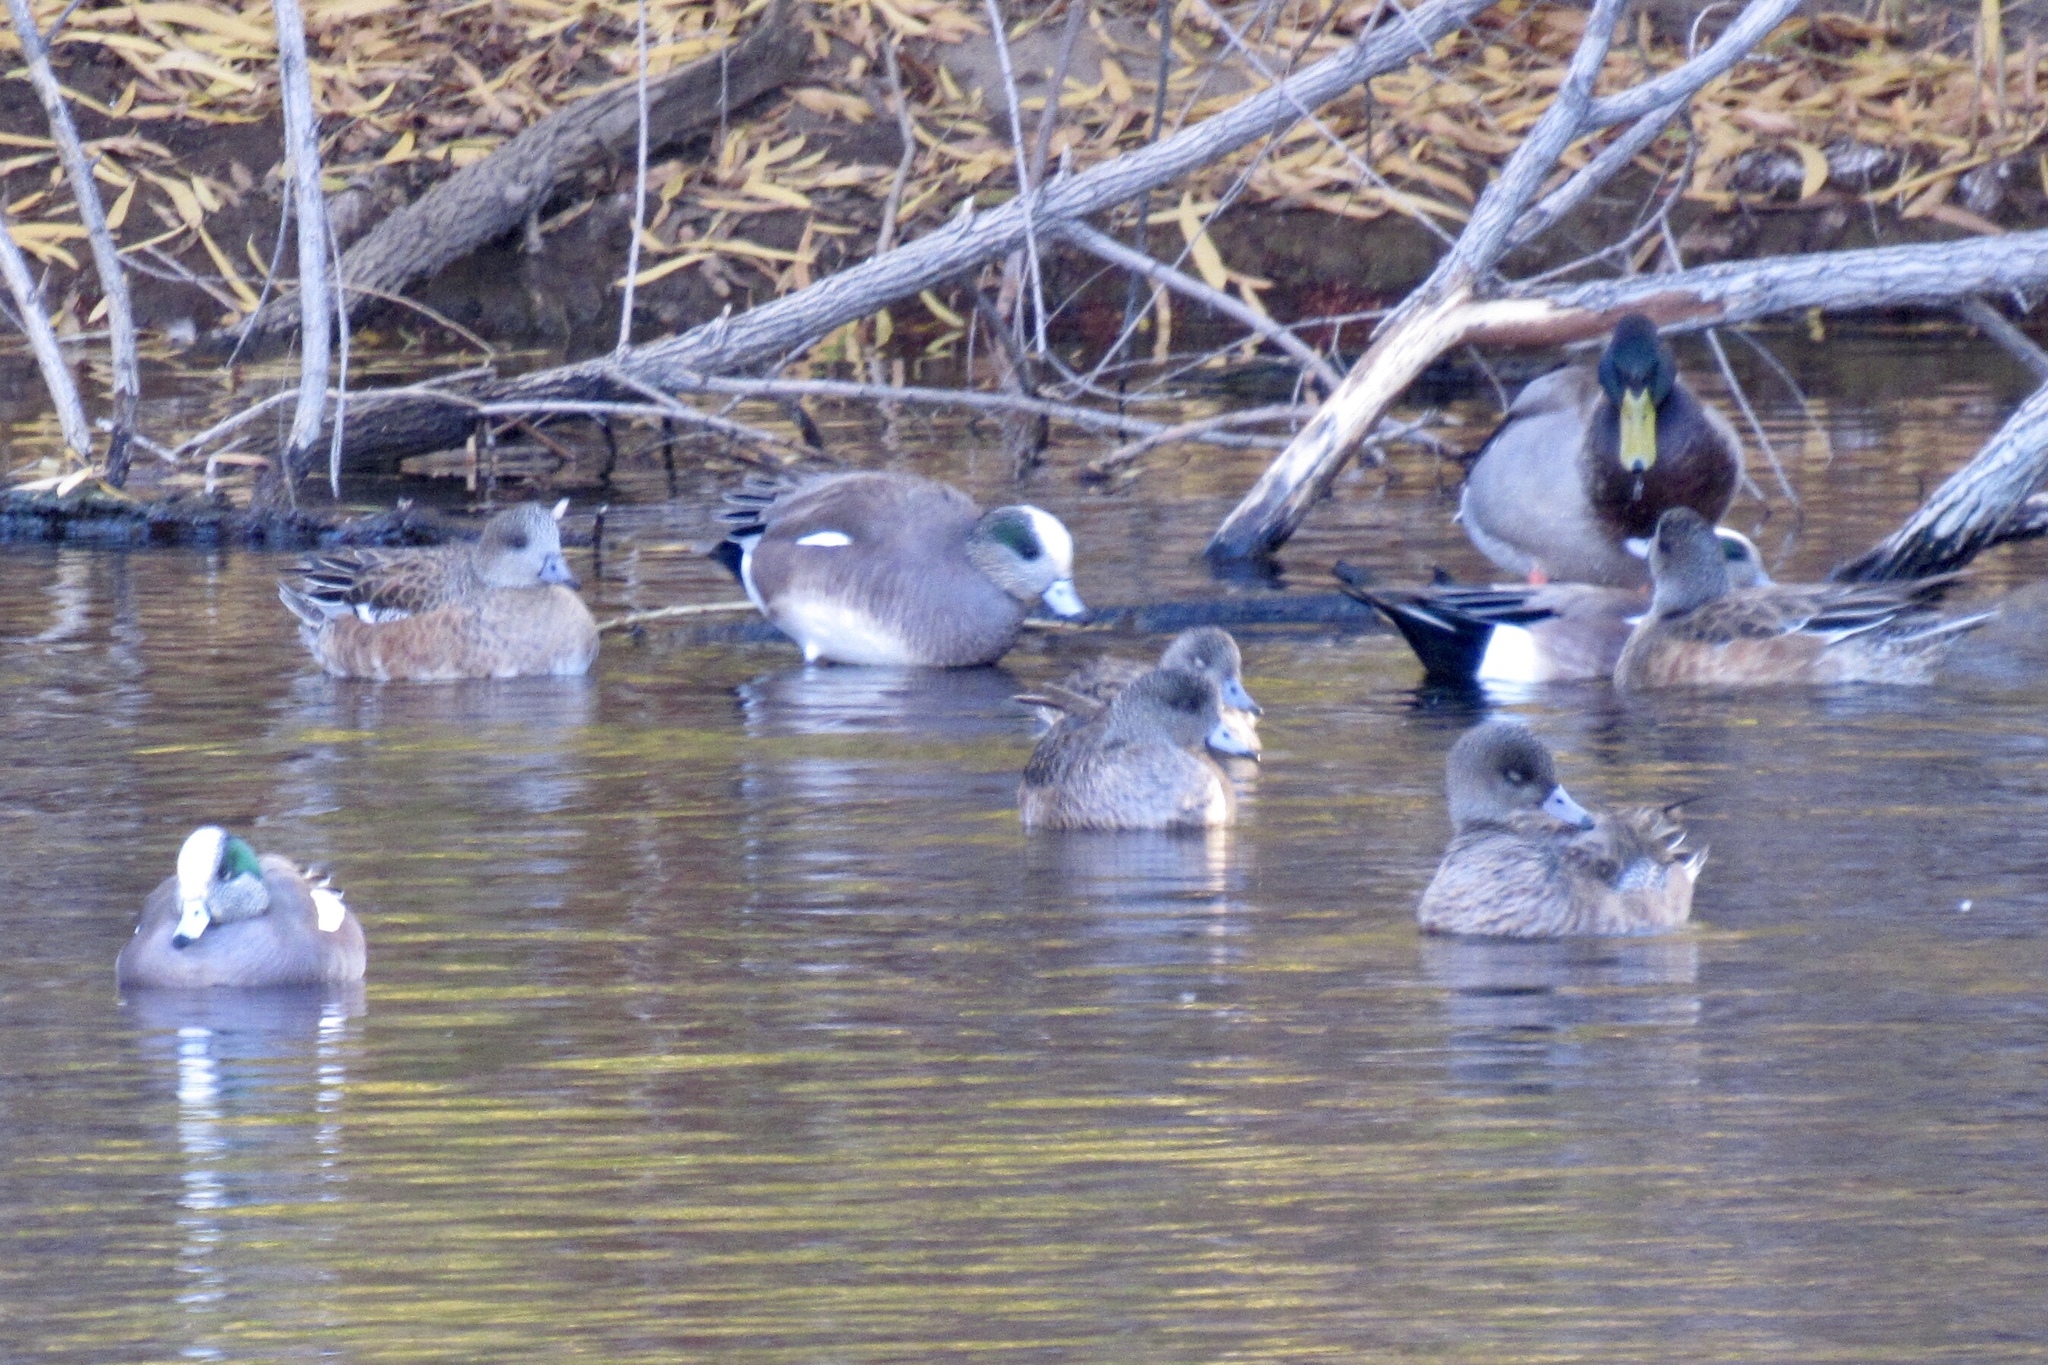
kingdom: Animalia
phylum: Chordata
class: Aves
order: Anseriformes
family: Anatidae
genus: Mareca
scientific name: Mareca americana
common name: American wigeon
